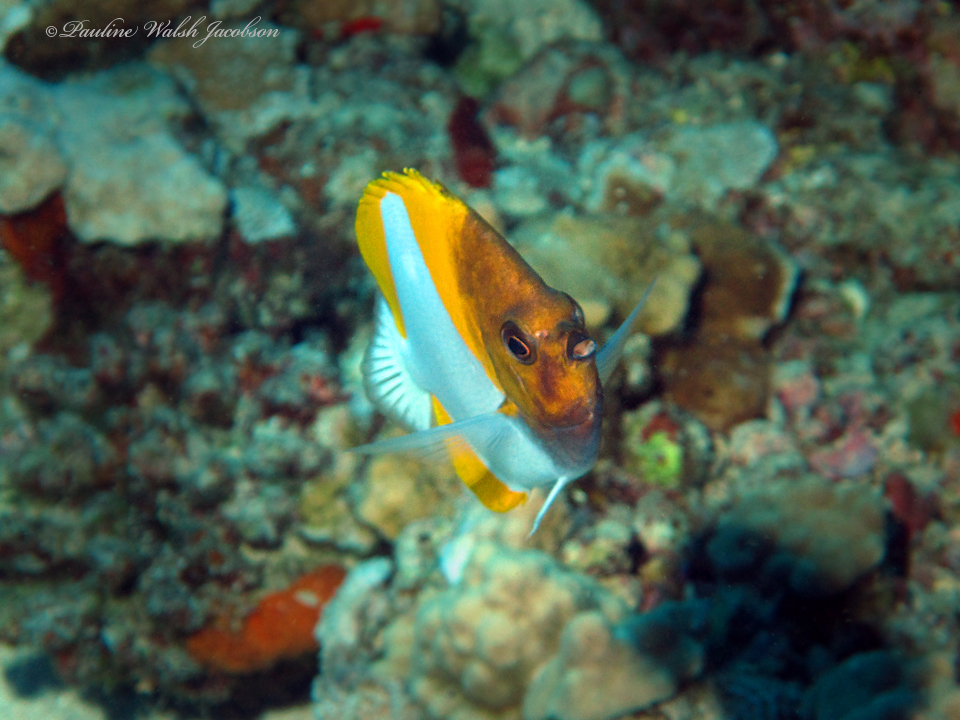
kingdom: Animalia
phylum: Chordata
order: Perciformes
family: Chaetodontidae
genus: Hemitaurichthys
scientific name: Hemitaurichthys polylepis
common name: Brushytoothed butterflyfish
